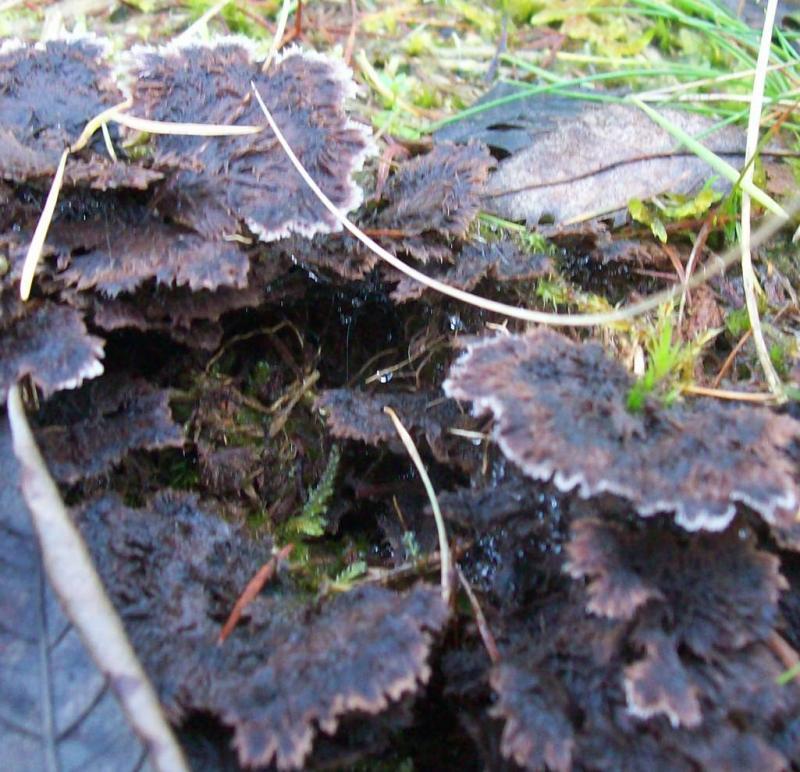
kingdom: Fungi
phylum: Basidiomycota
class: Agaricomycetes
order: Thelephorales
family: Thelephoraceae
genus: Thelephora
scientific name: Thelephora terrestris
